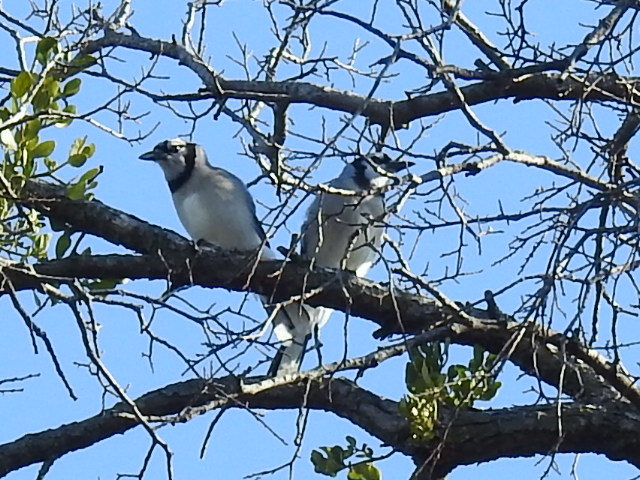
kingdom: Animalia
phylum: Chordata
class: Aves
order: Passeriformes
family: Corvidae
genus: Cyanocitta
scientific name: Cyanocitta cristata
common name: Blue jay
